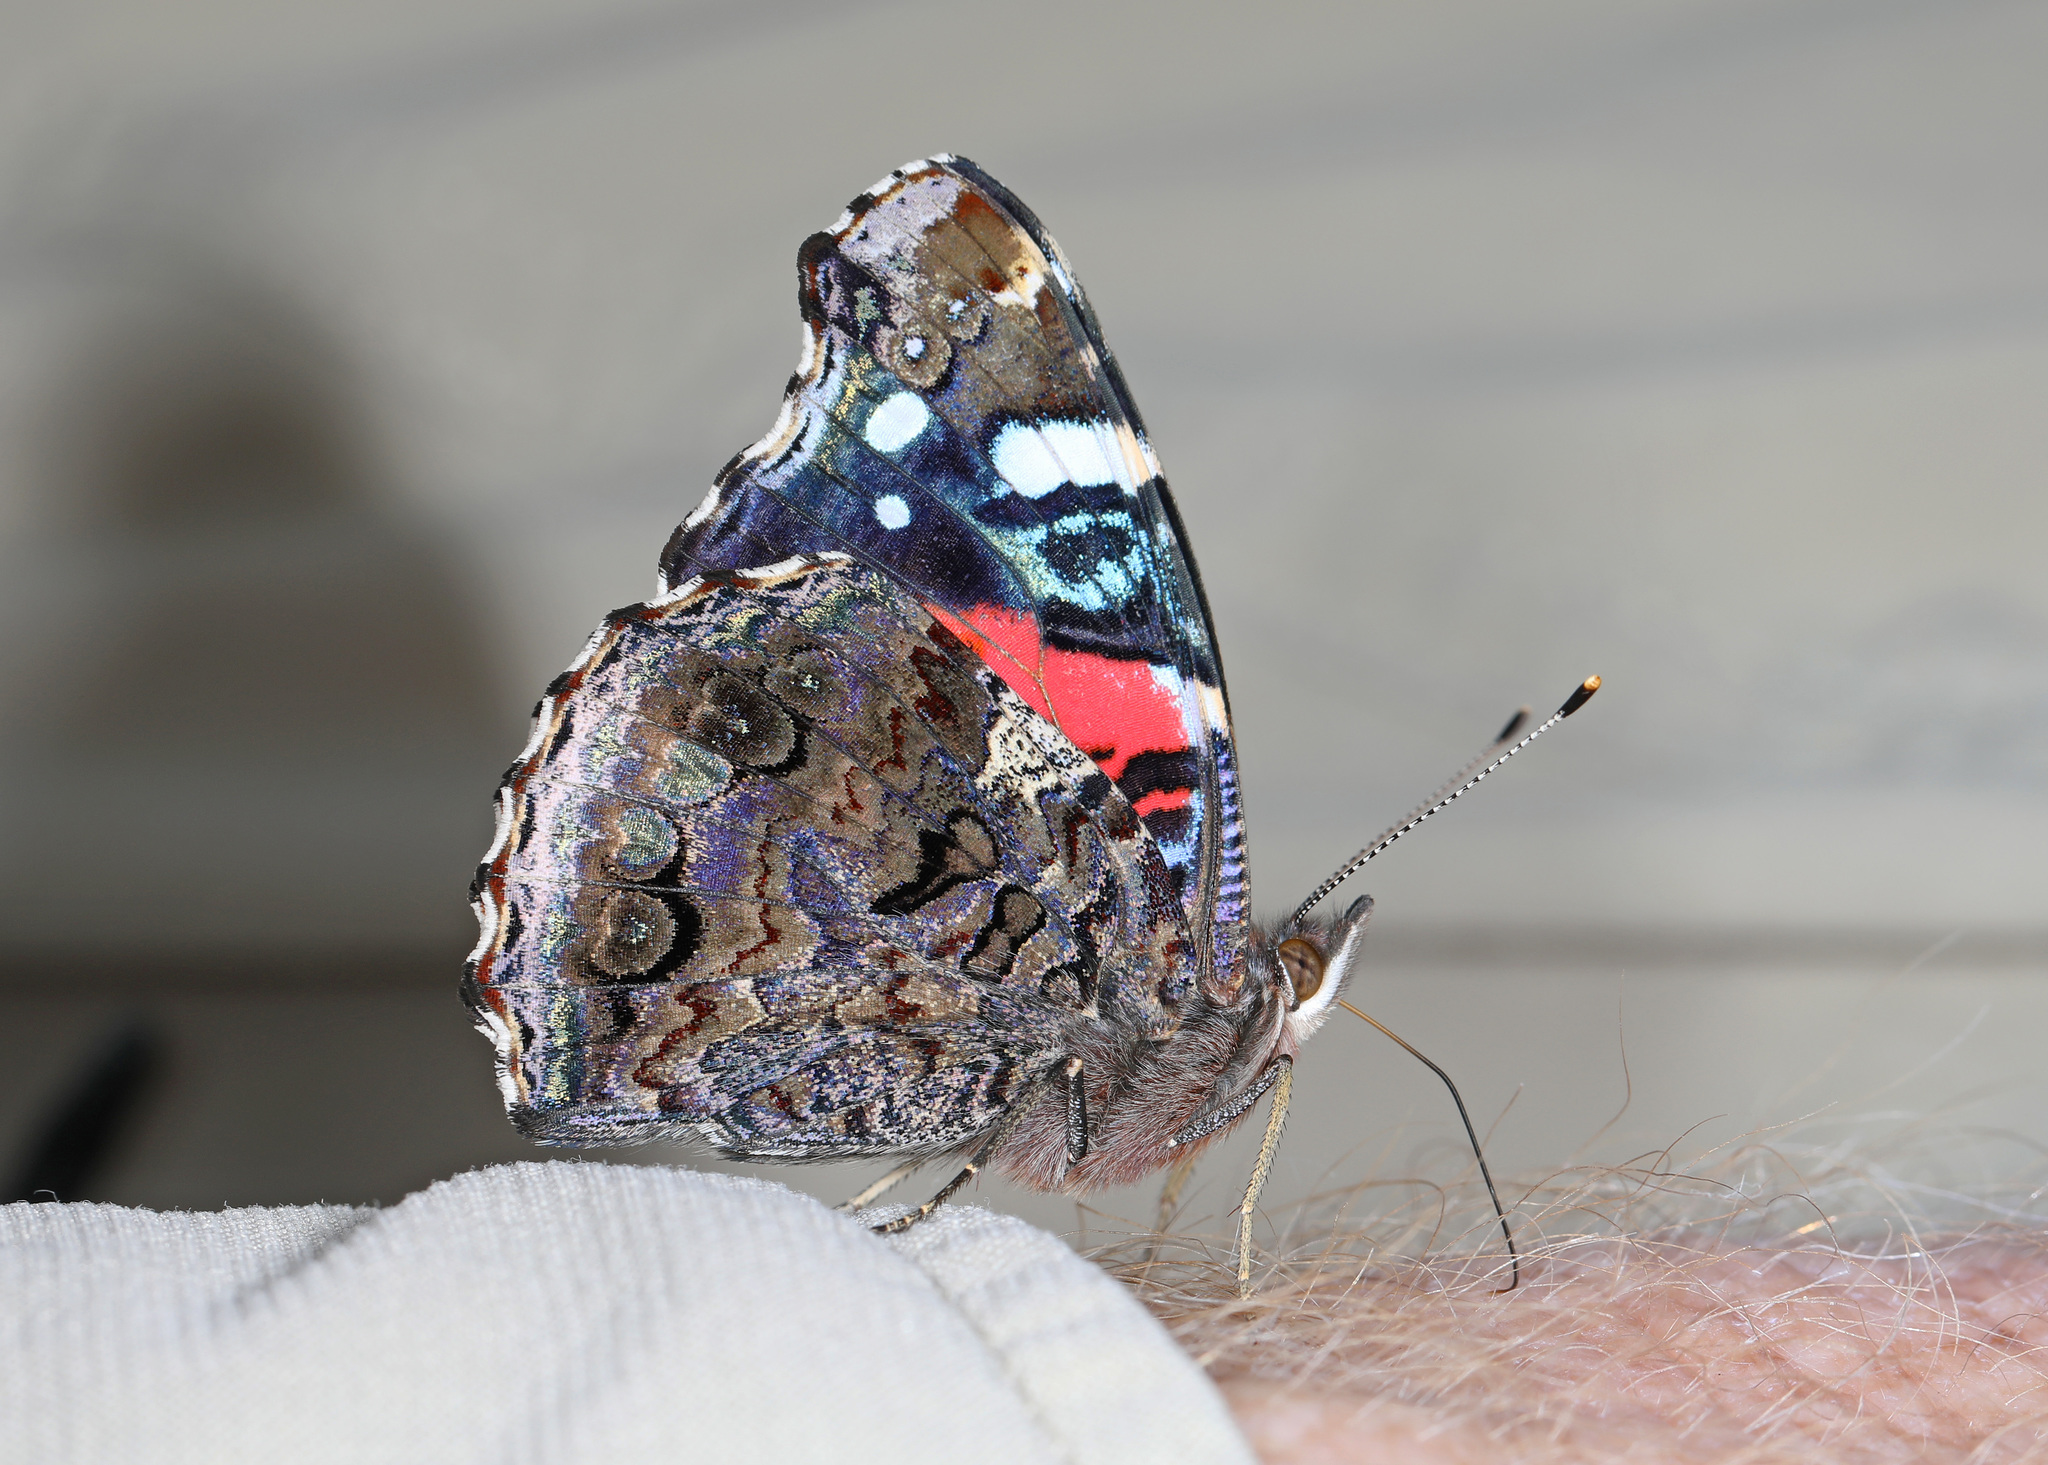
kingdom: Animalia
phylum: Arthropoda
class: Insecta
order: Lepidoptera
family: Nymphalidae
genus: Vanessa
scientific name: Vanessa atalanta
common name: Red admiral
